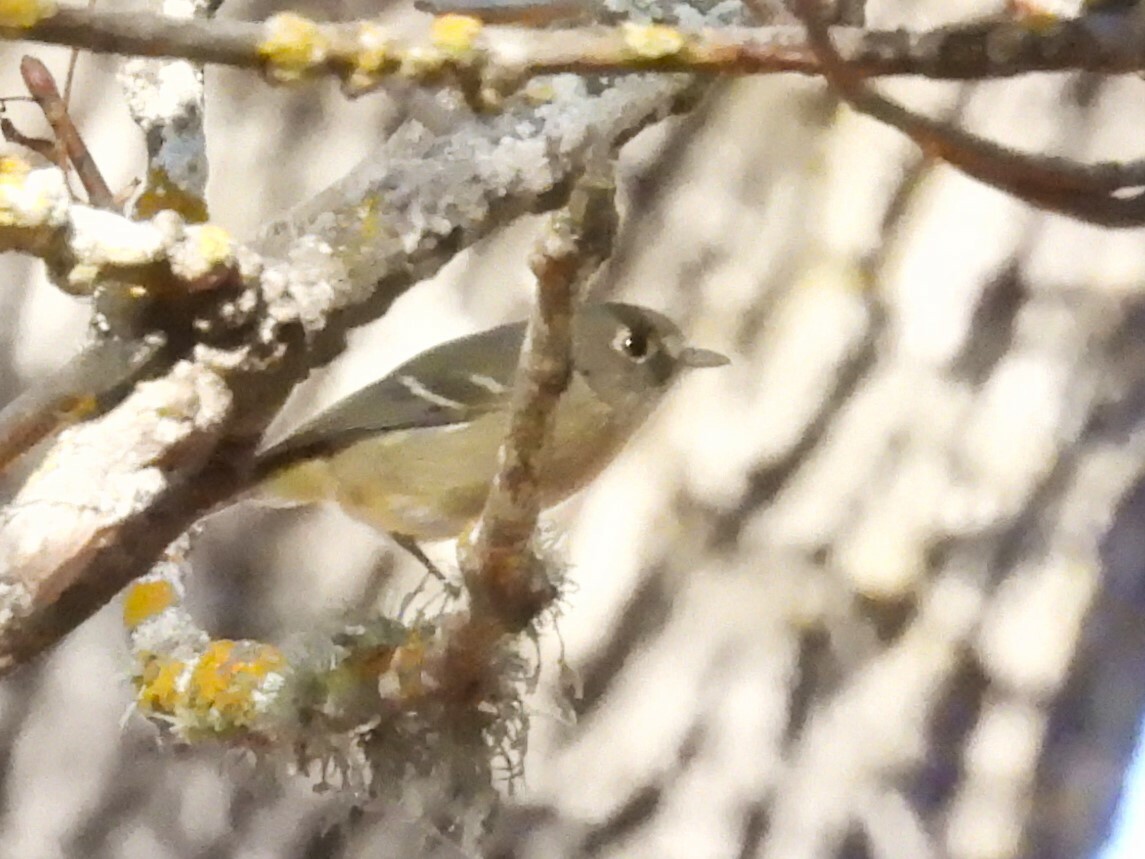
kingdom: Animalia
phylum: Chordata
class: Aves
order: Passeriformes
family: Vireonidae
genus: Vireo
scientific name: Vireo huttoni
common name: Hutton's vireo
